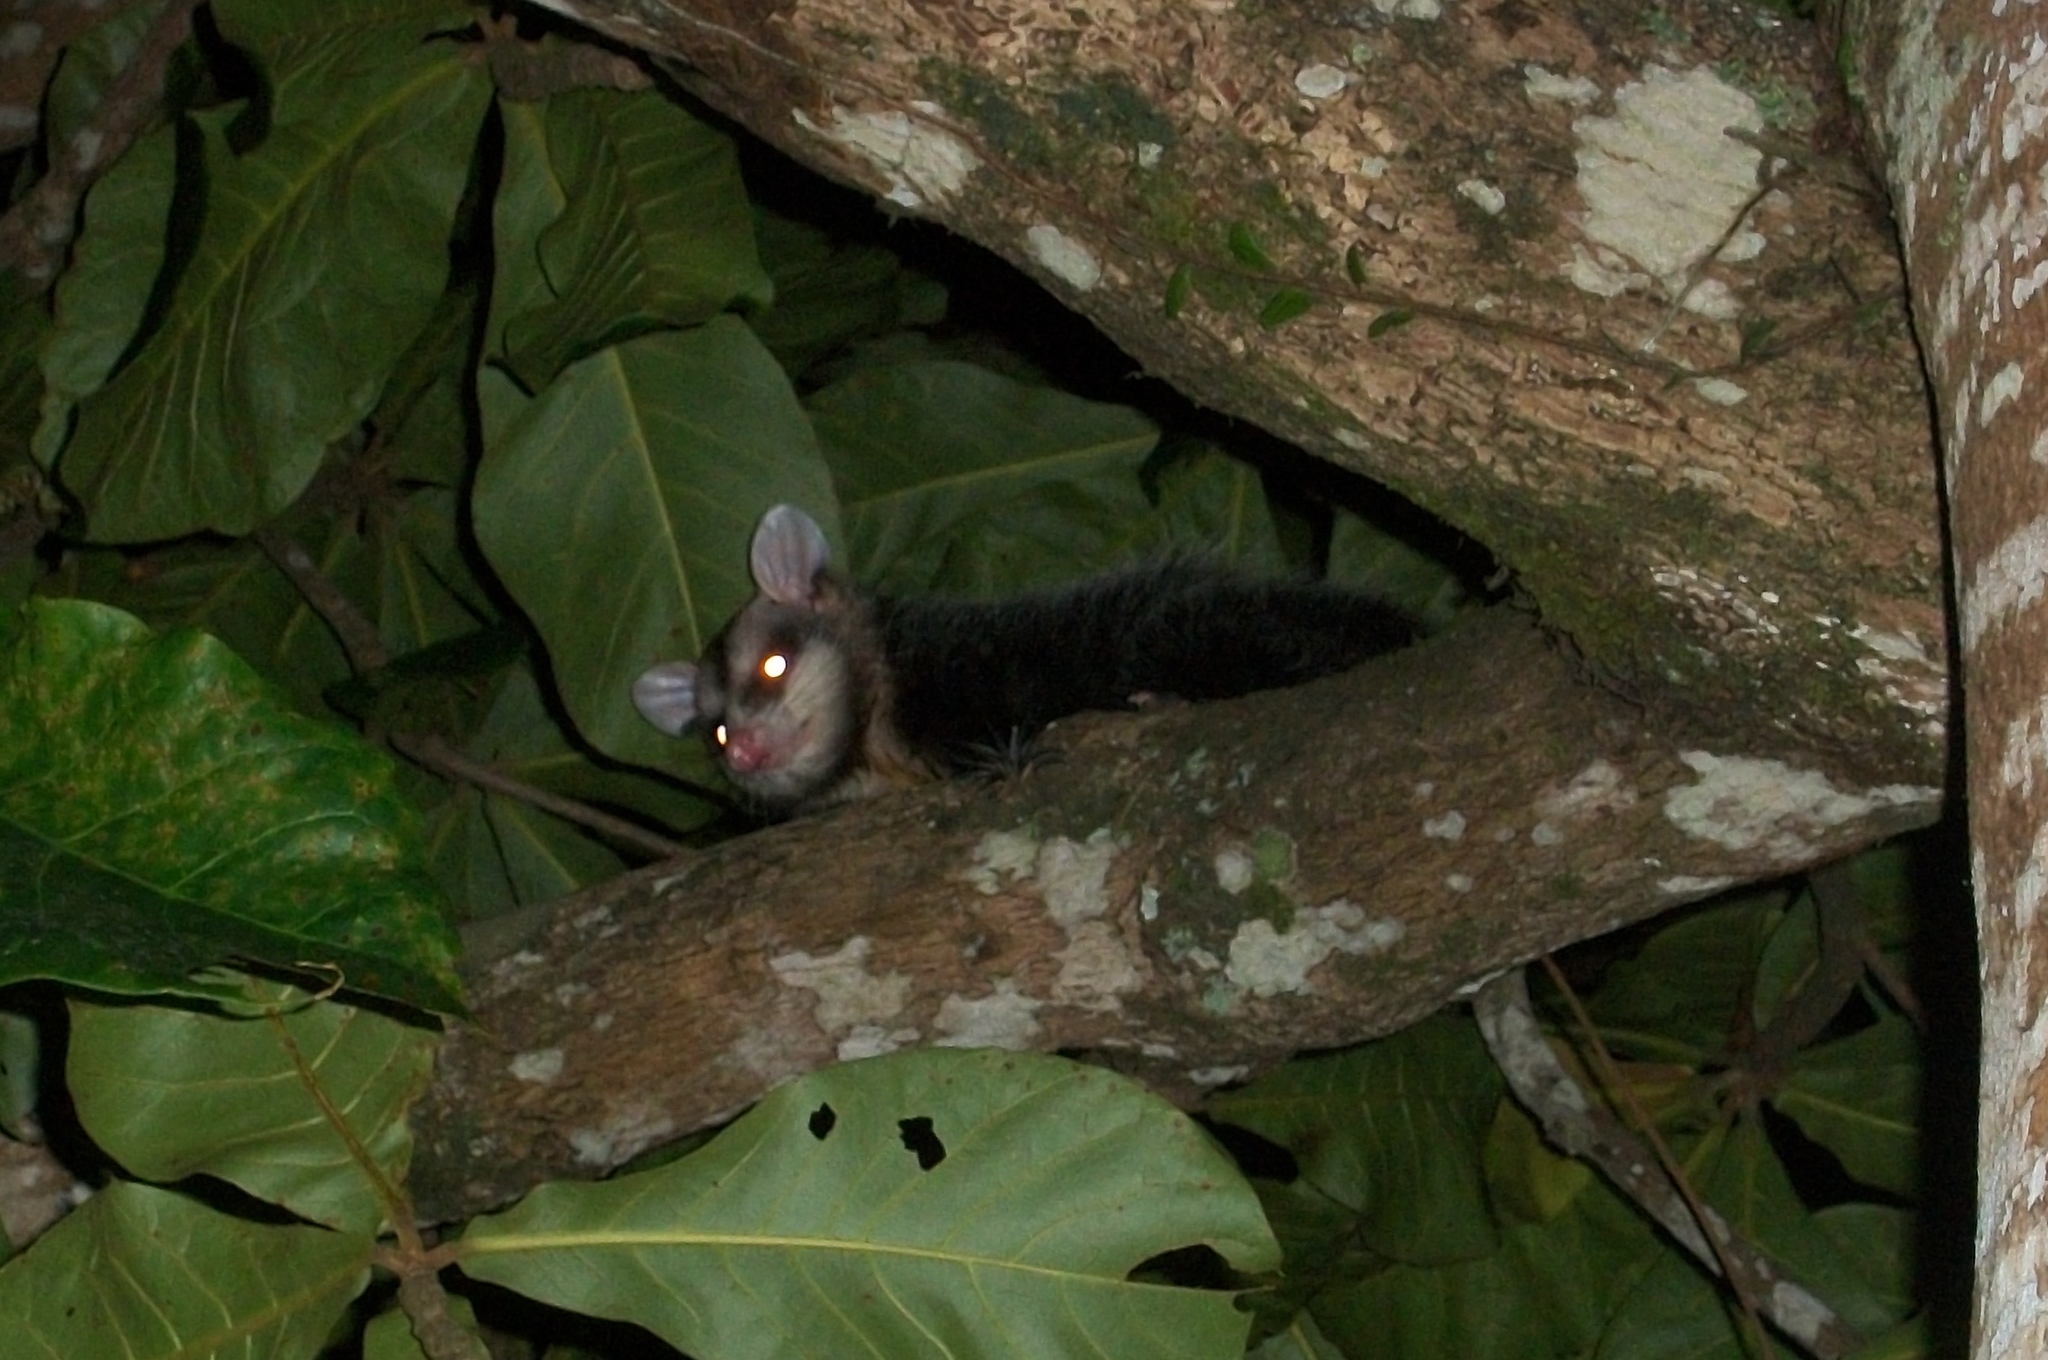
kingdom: Animalia
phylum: Chordata
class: Mammalia
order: Didelphimorphia
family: Didelphidae
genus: Didelphis
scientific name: Didelphis albiventris
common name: White-eared opossum
